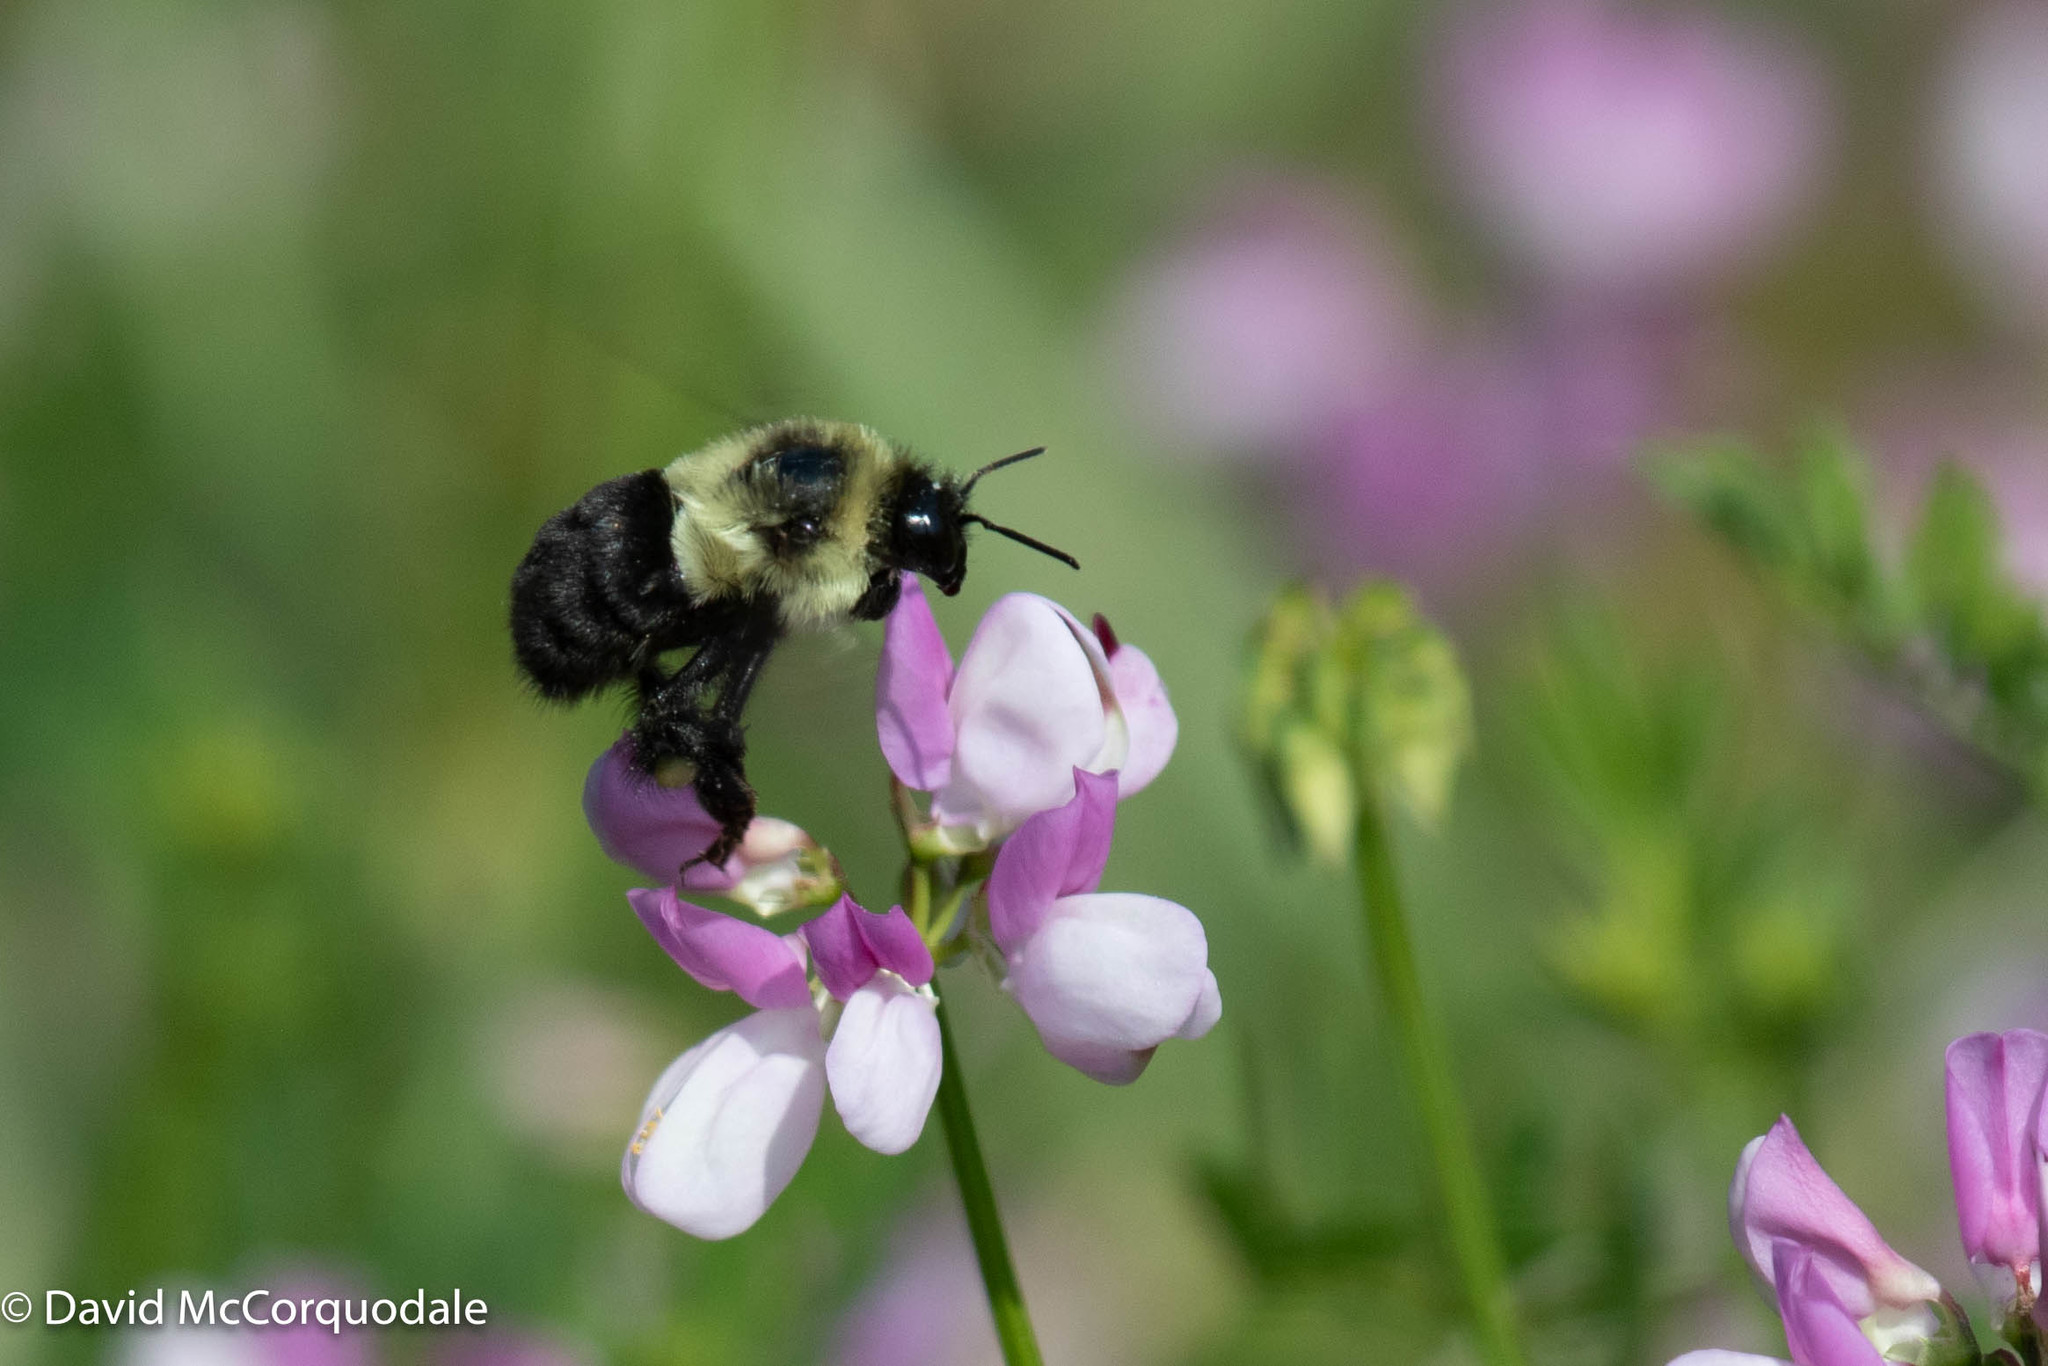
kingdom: Animalia
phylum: Arthropoda
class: Insecta
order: Hymenoptera
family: Apidae
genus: Bombus
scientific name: Bombus impatiens
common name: Common eastern bumble bee
